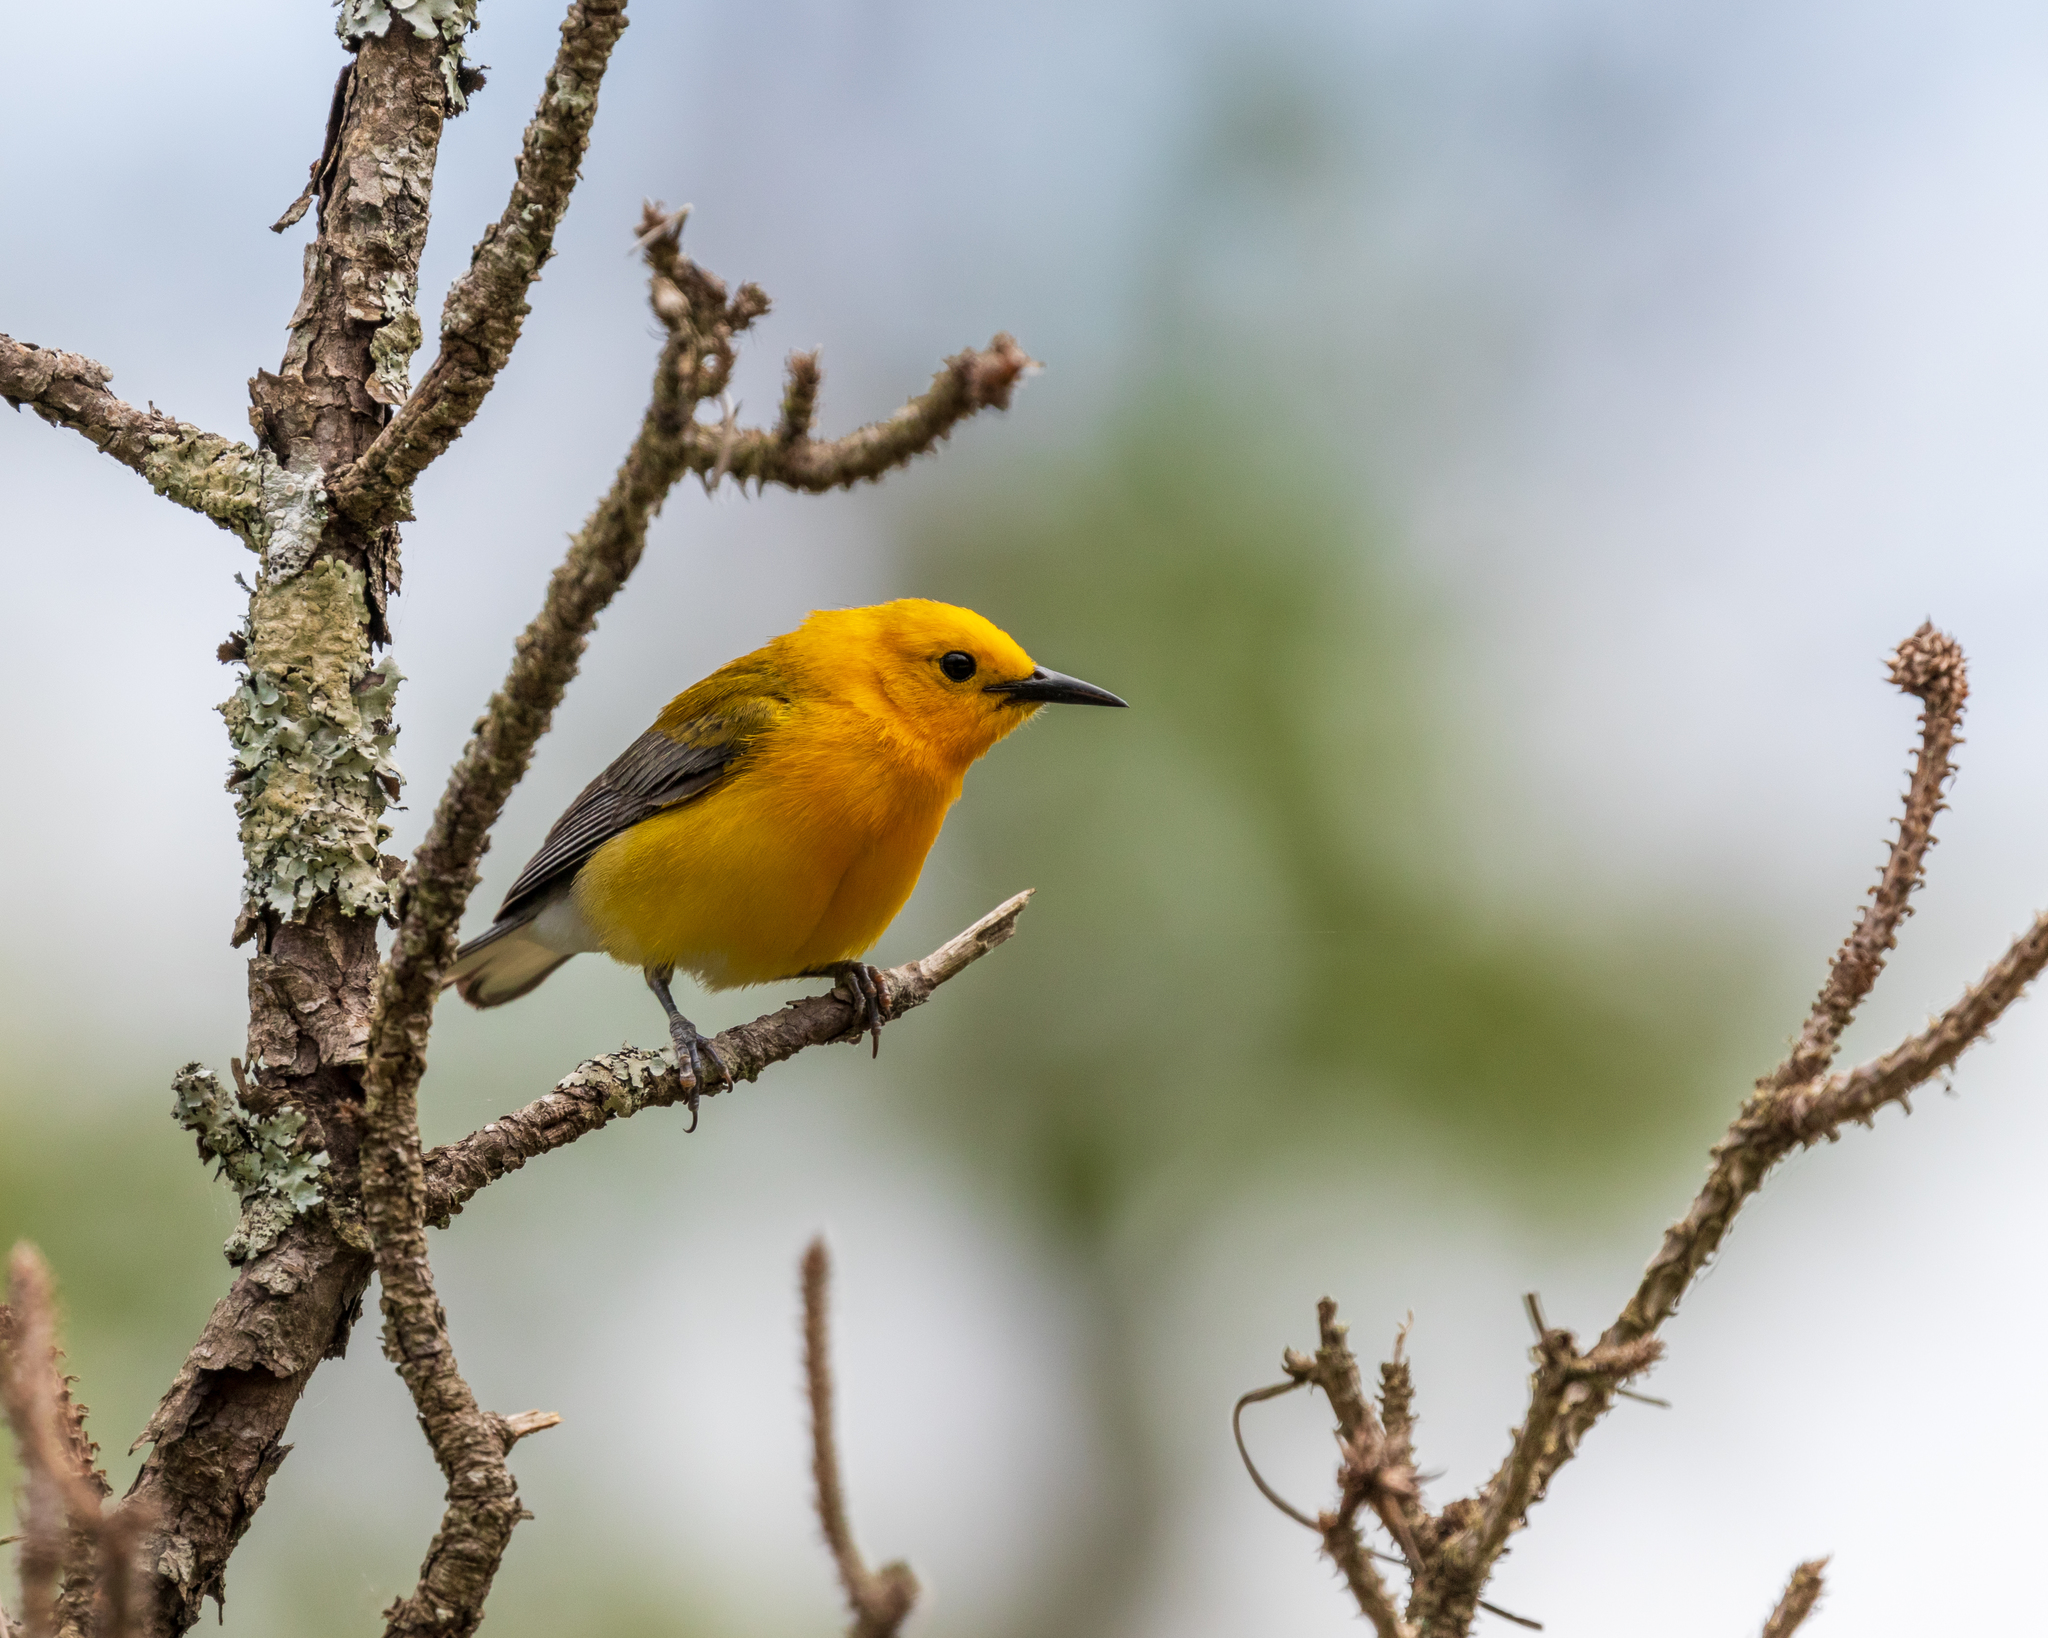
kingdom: Animalia
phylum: Chordata
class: Aves
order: Passeriformes
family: Parulidae
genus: Protonotaria
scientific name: Protonotaria citrea
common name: Prothonotary warbler
